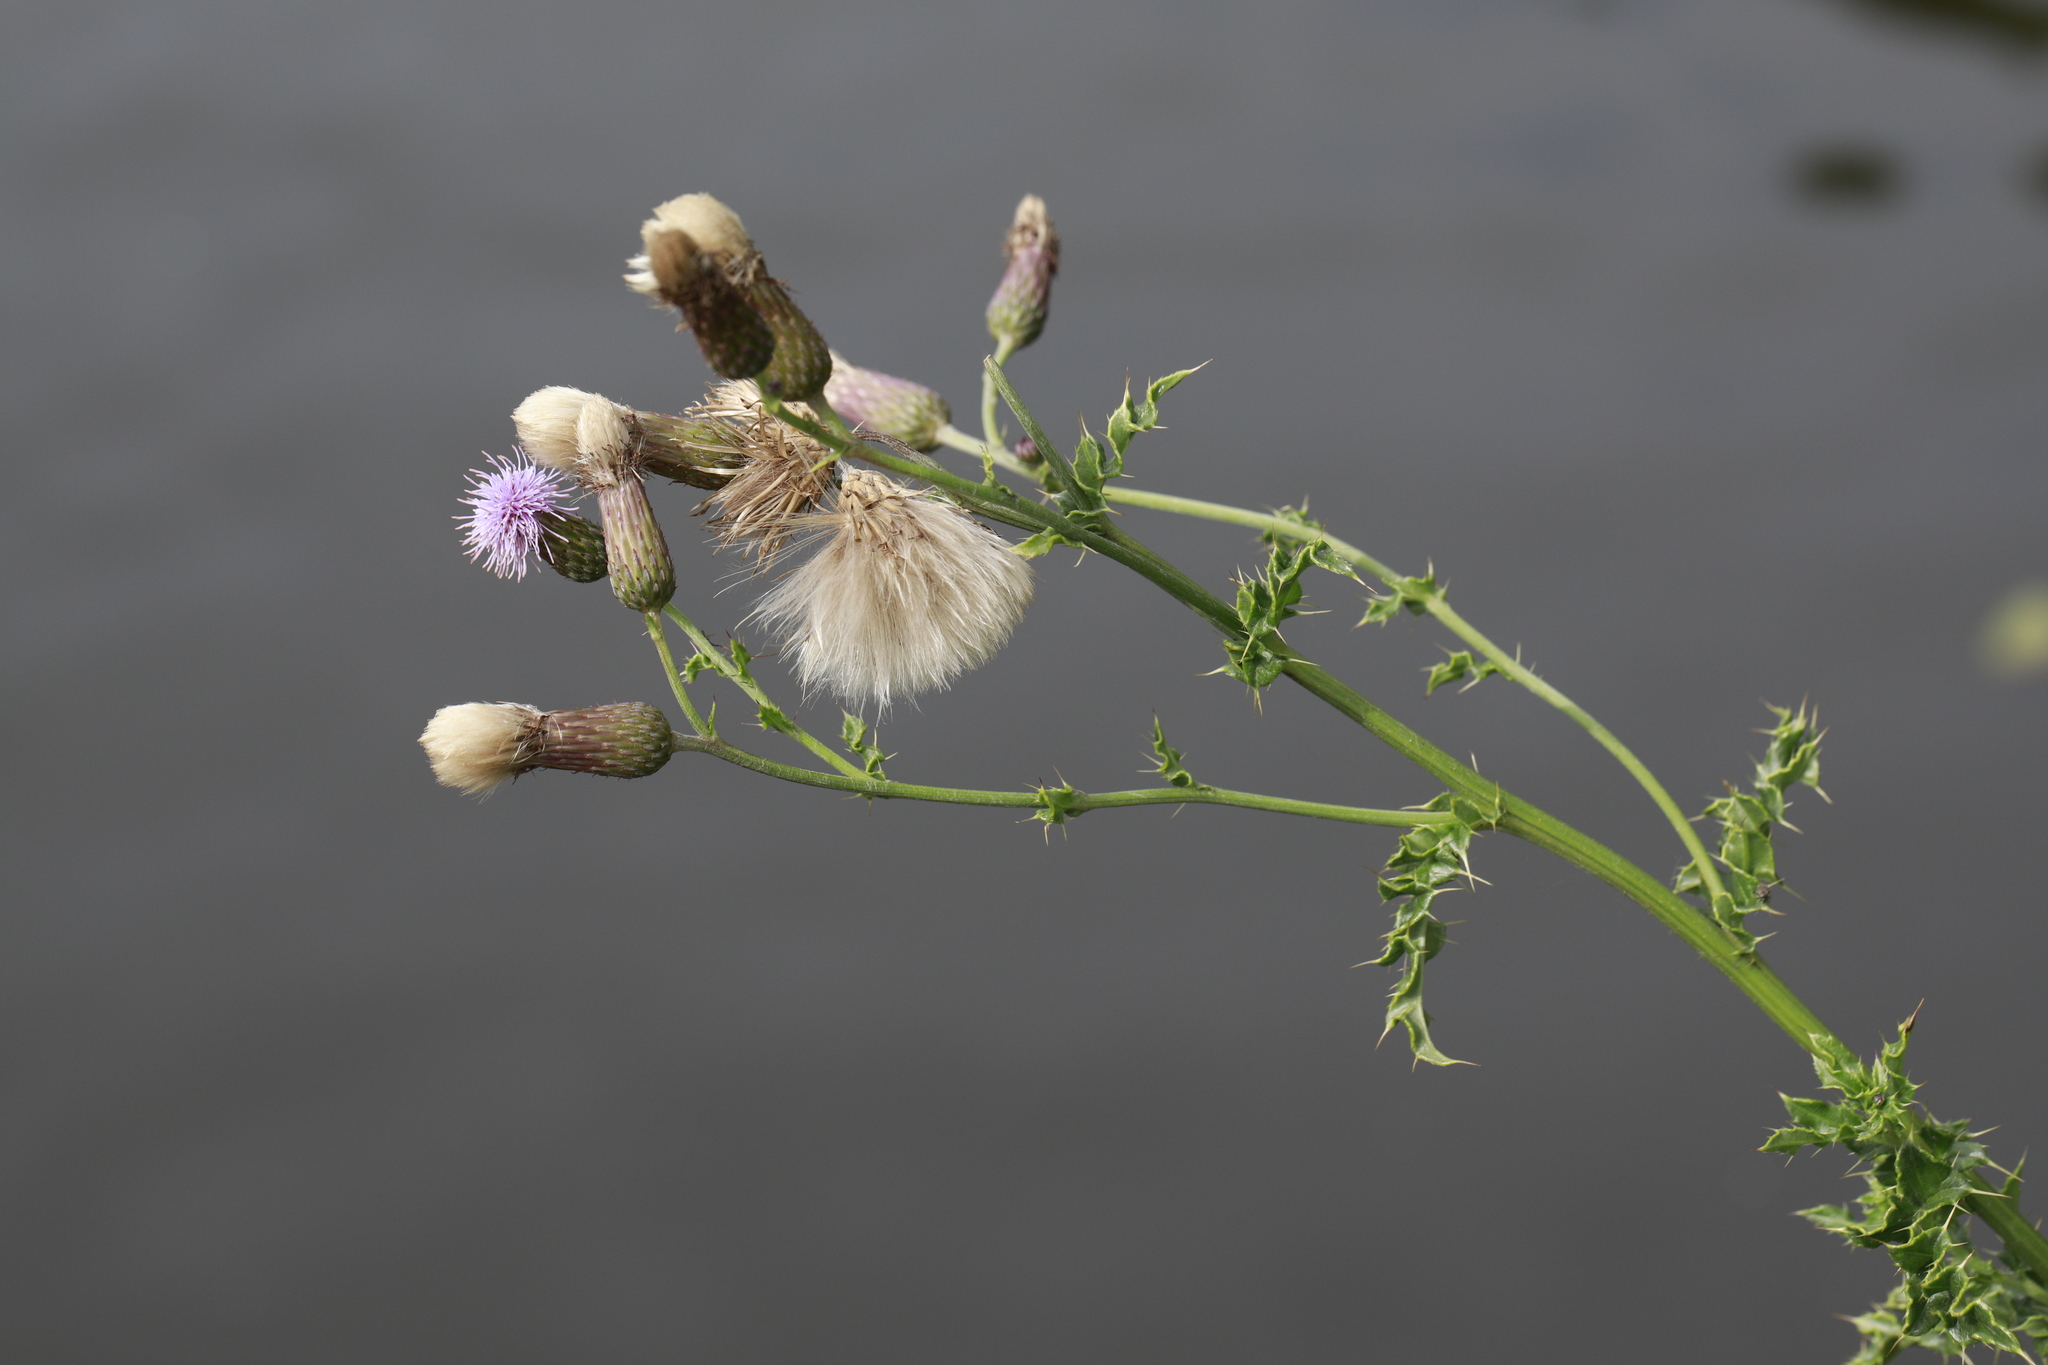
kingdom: Plantae
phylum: Tracheophyta
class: Magnoliopsida
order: Asterales
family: Asteraceae
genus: Cirsium
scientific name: Cirsium arvense
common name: Creeping thistle
